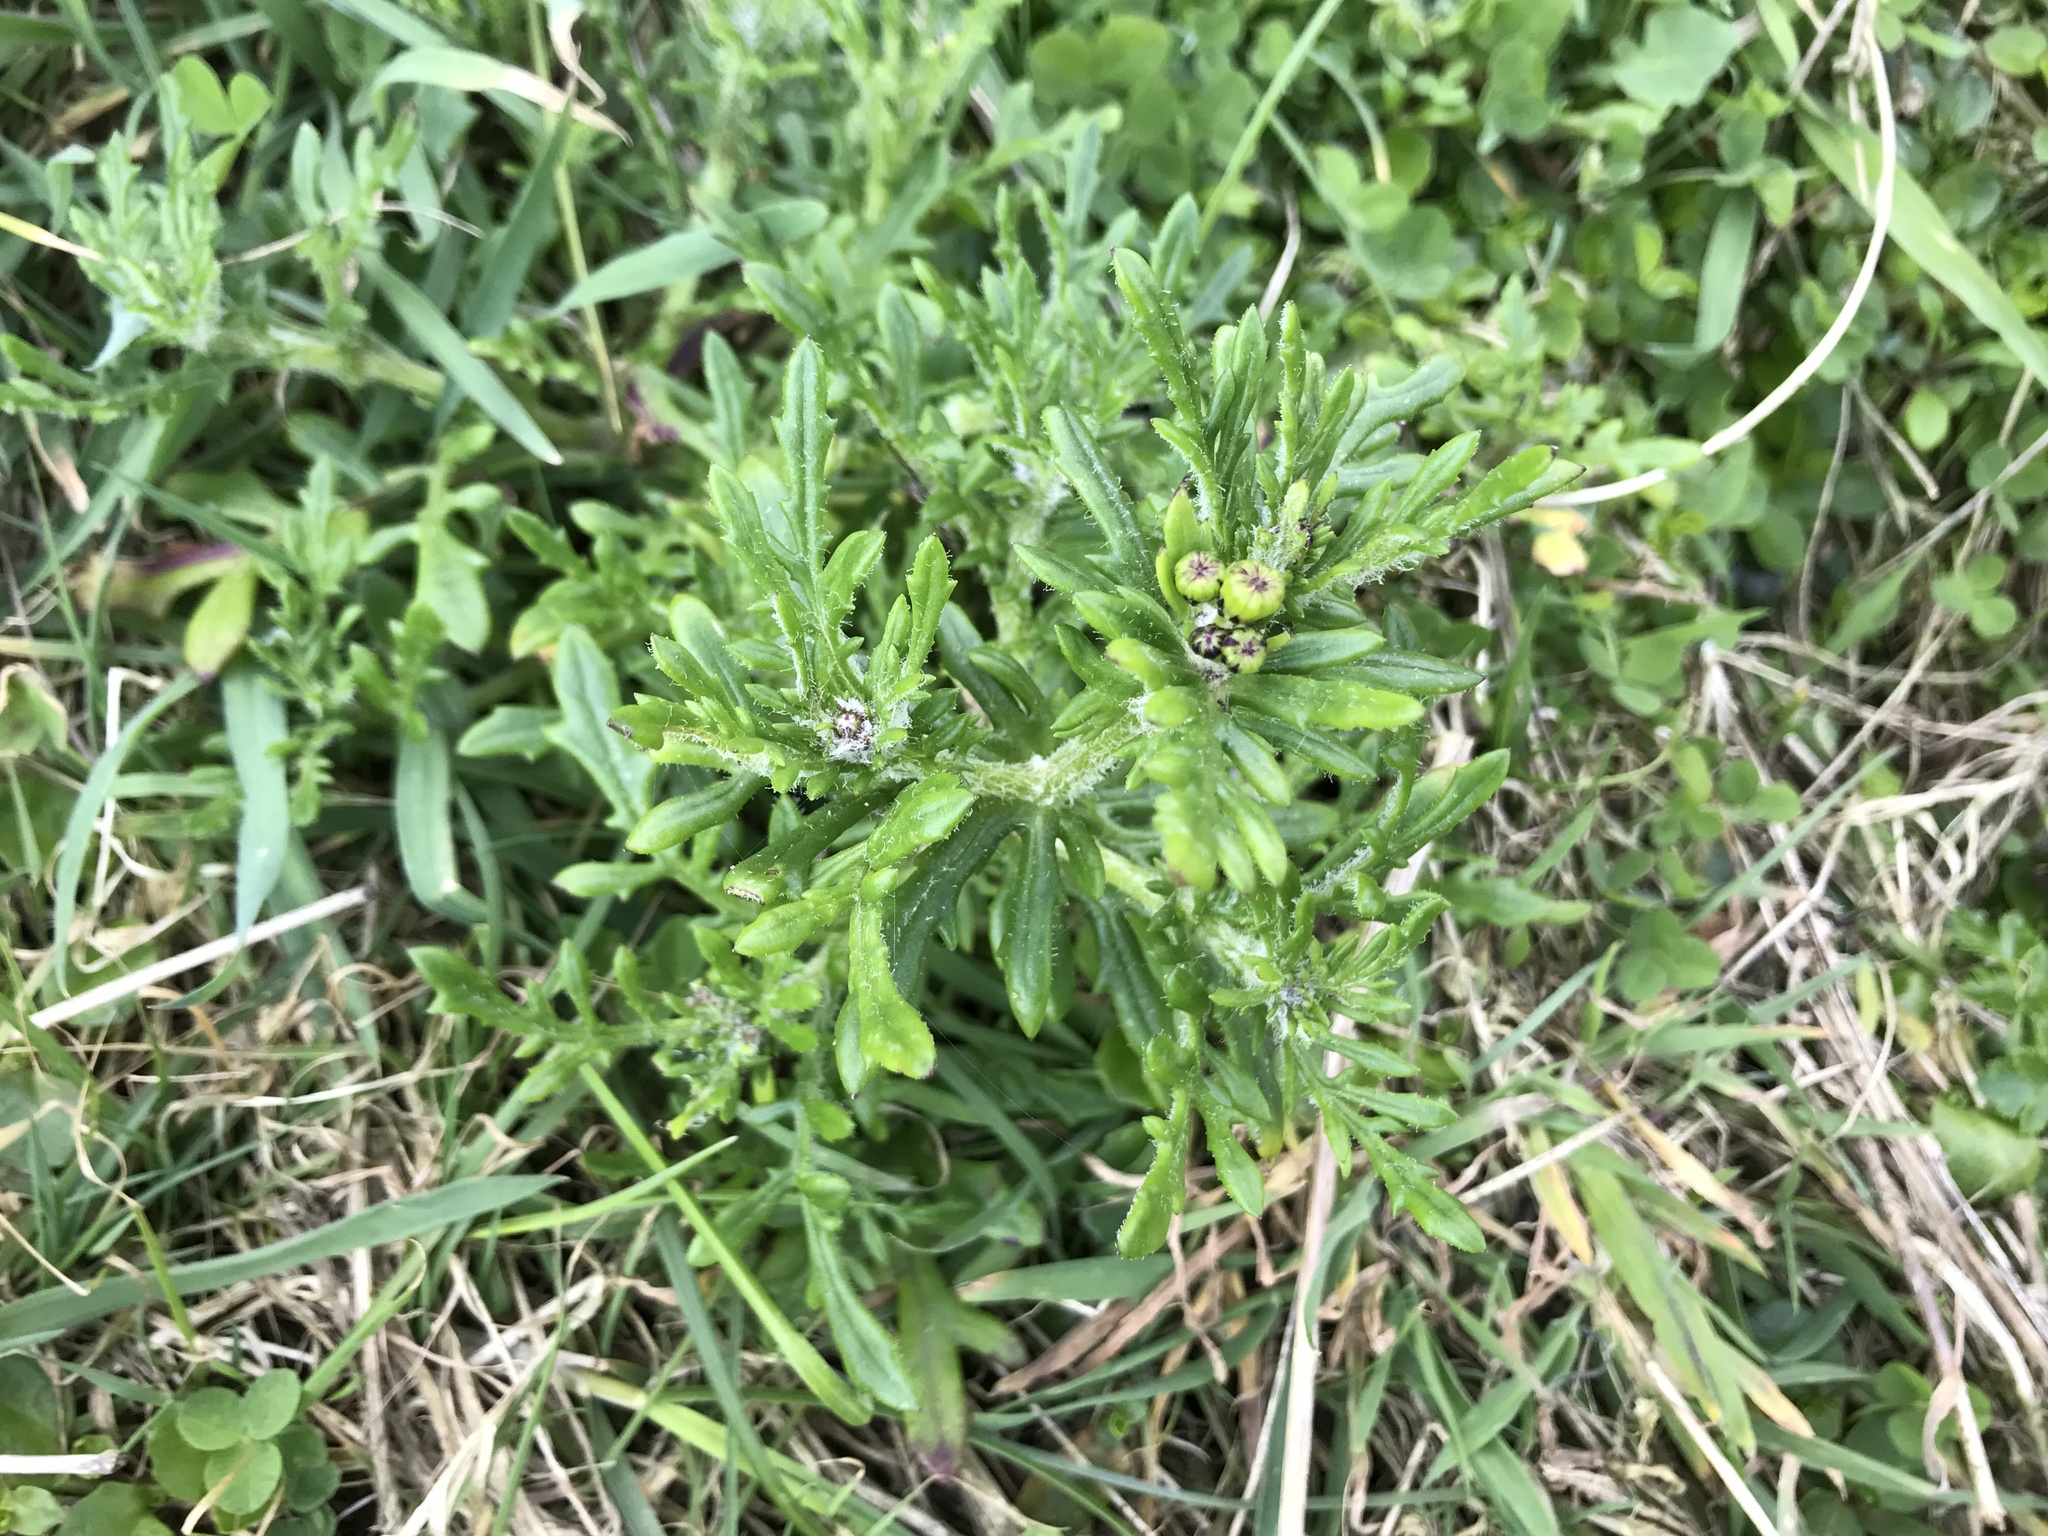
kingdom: Plantae
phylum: Tracheophyta
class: Magnoliopsida
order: Asterales
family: Asteraceae
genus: Senecio
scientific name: Senecio lautus
